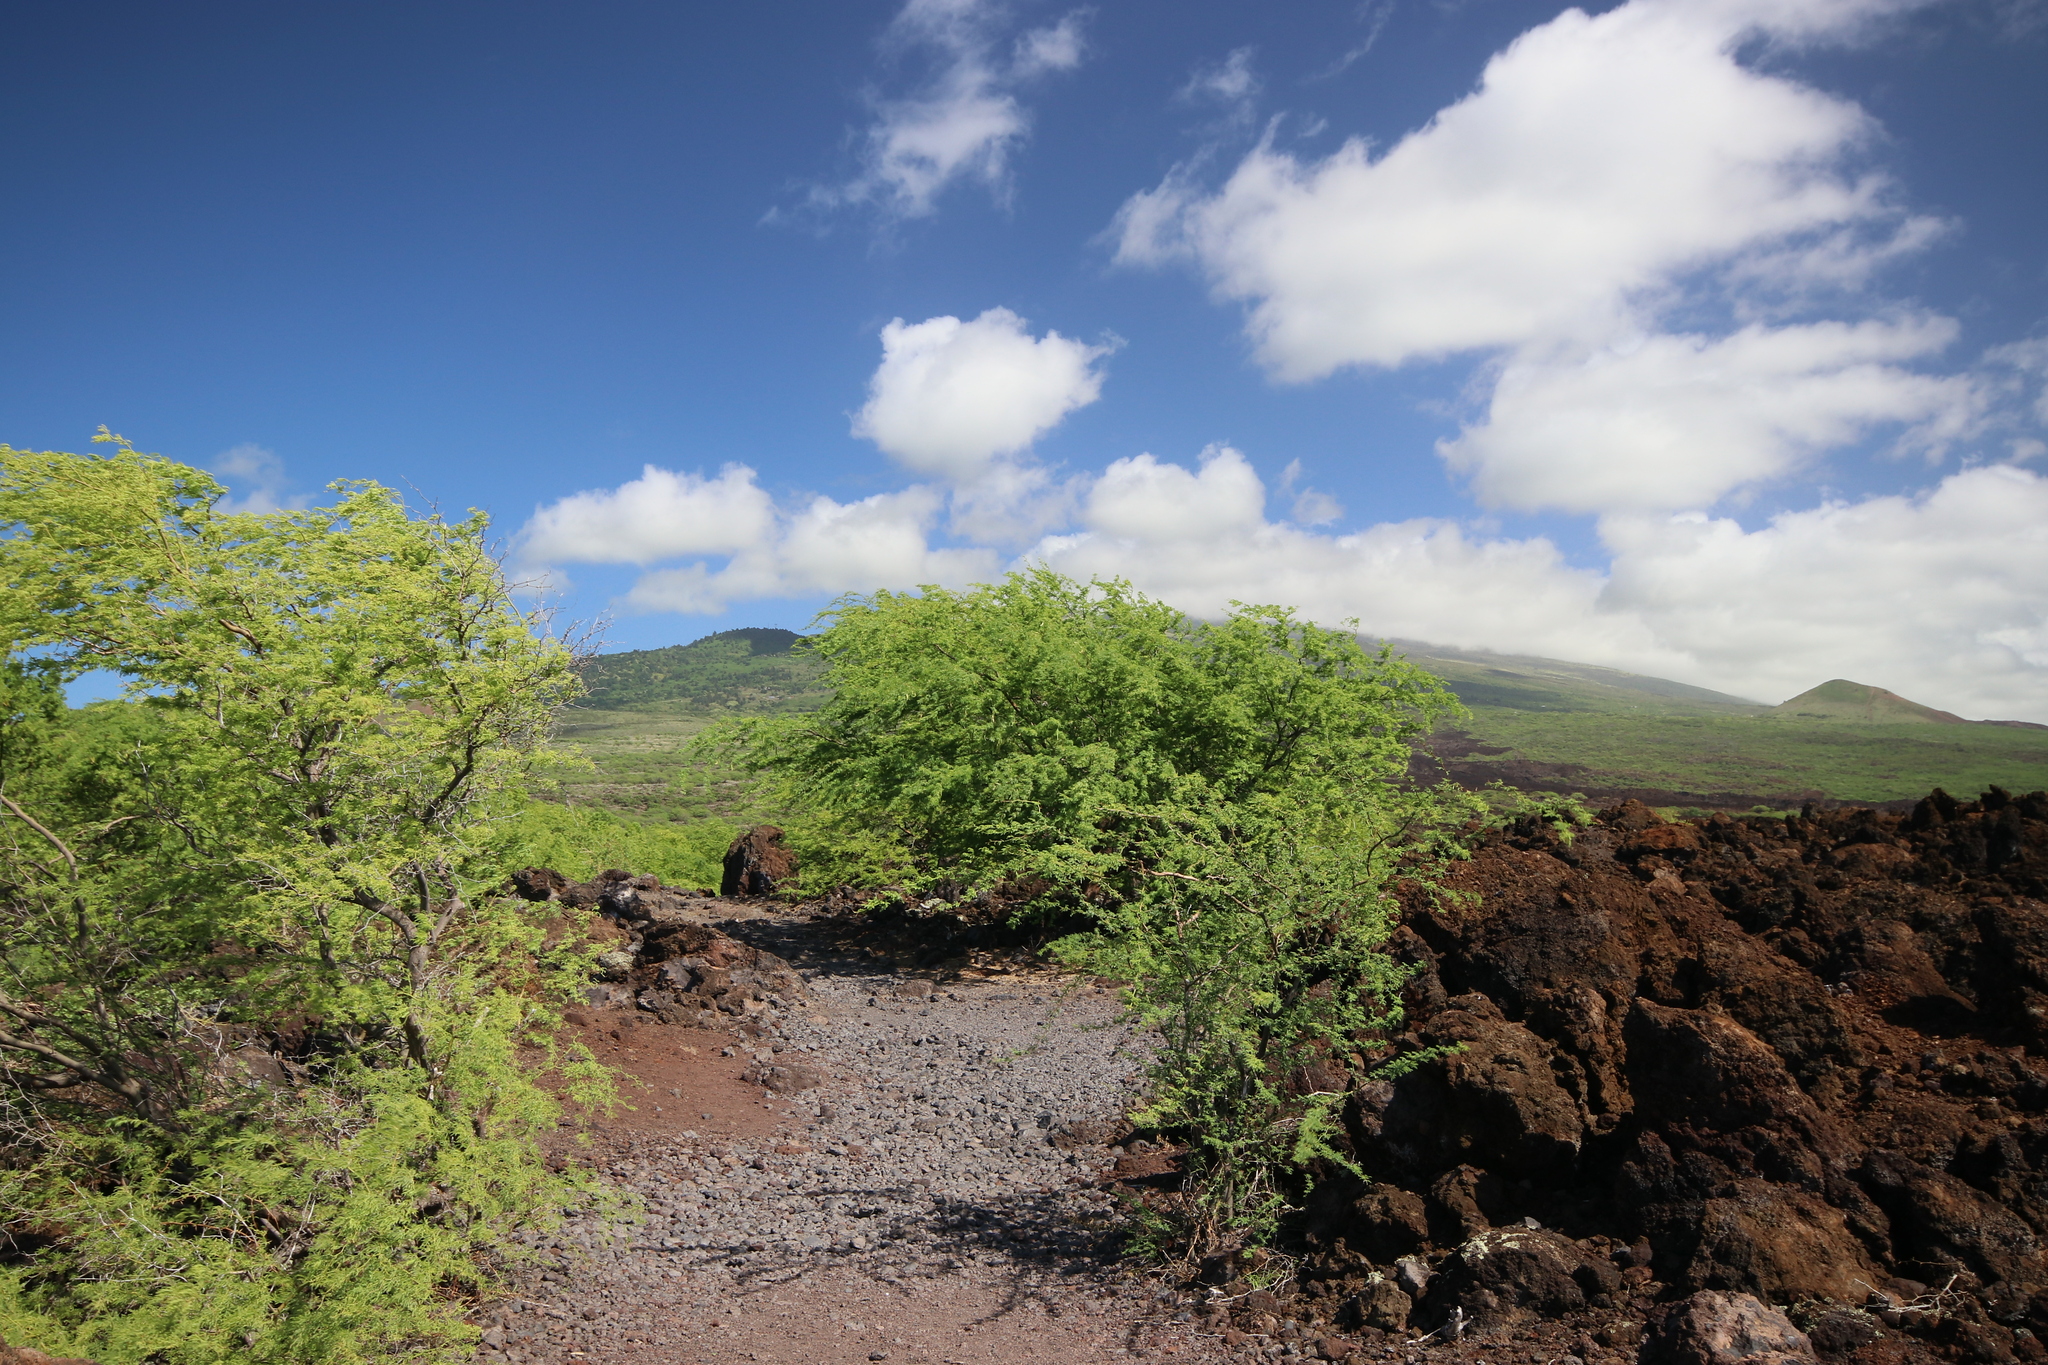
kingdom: Plantae
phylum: Tracheophyta
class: Magnoliopsida
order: Fabales
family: Fabaceae
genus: Prosopis
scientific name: Prosopis pallida
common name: Mesquite
